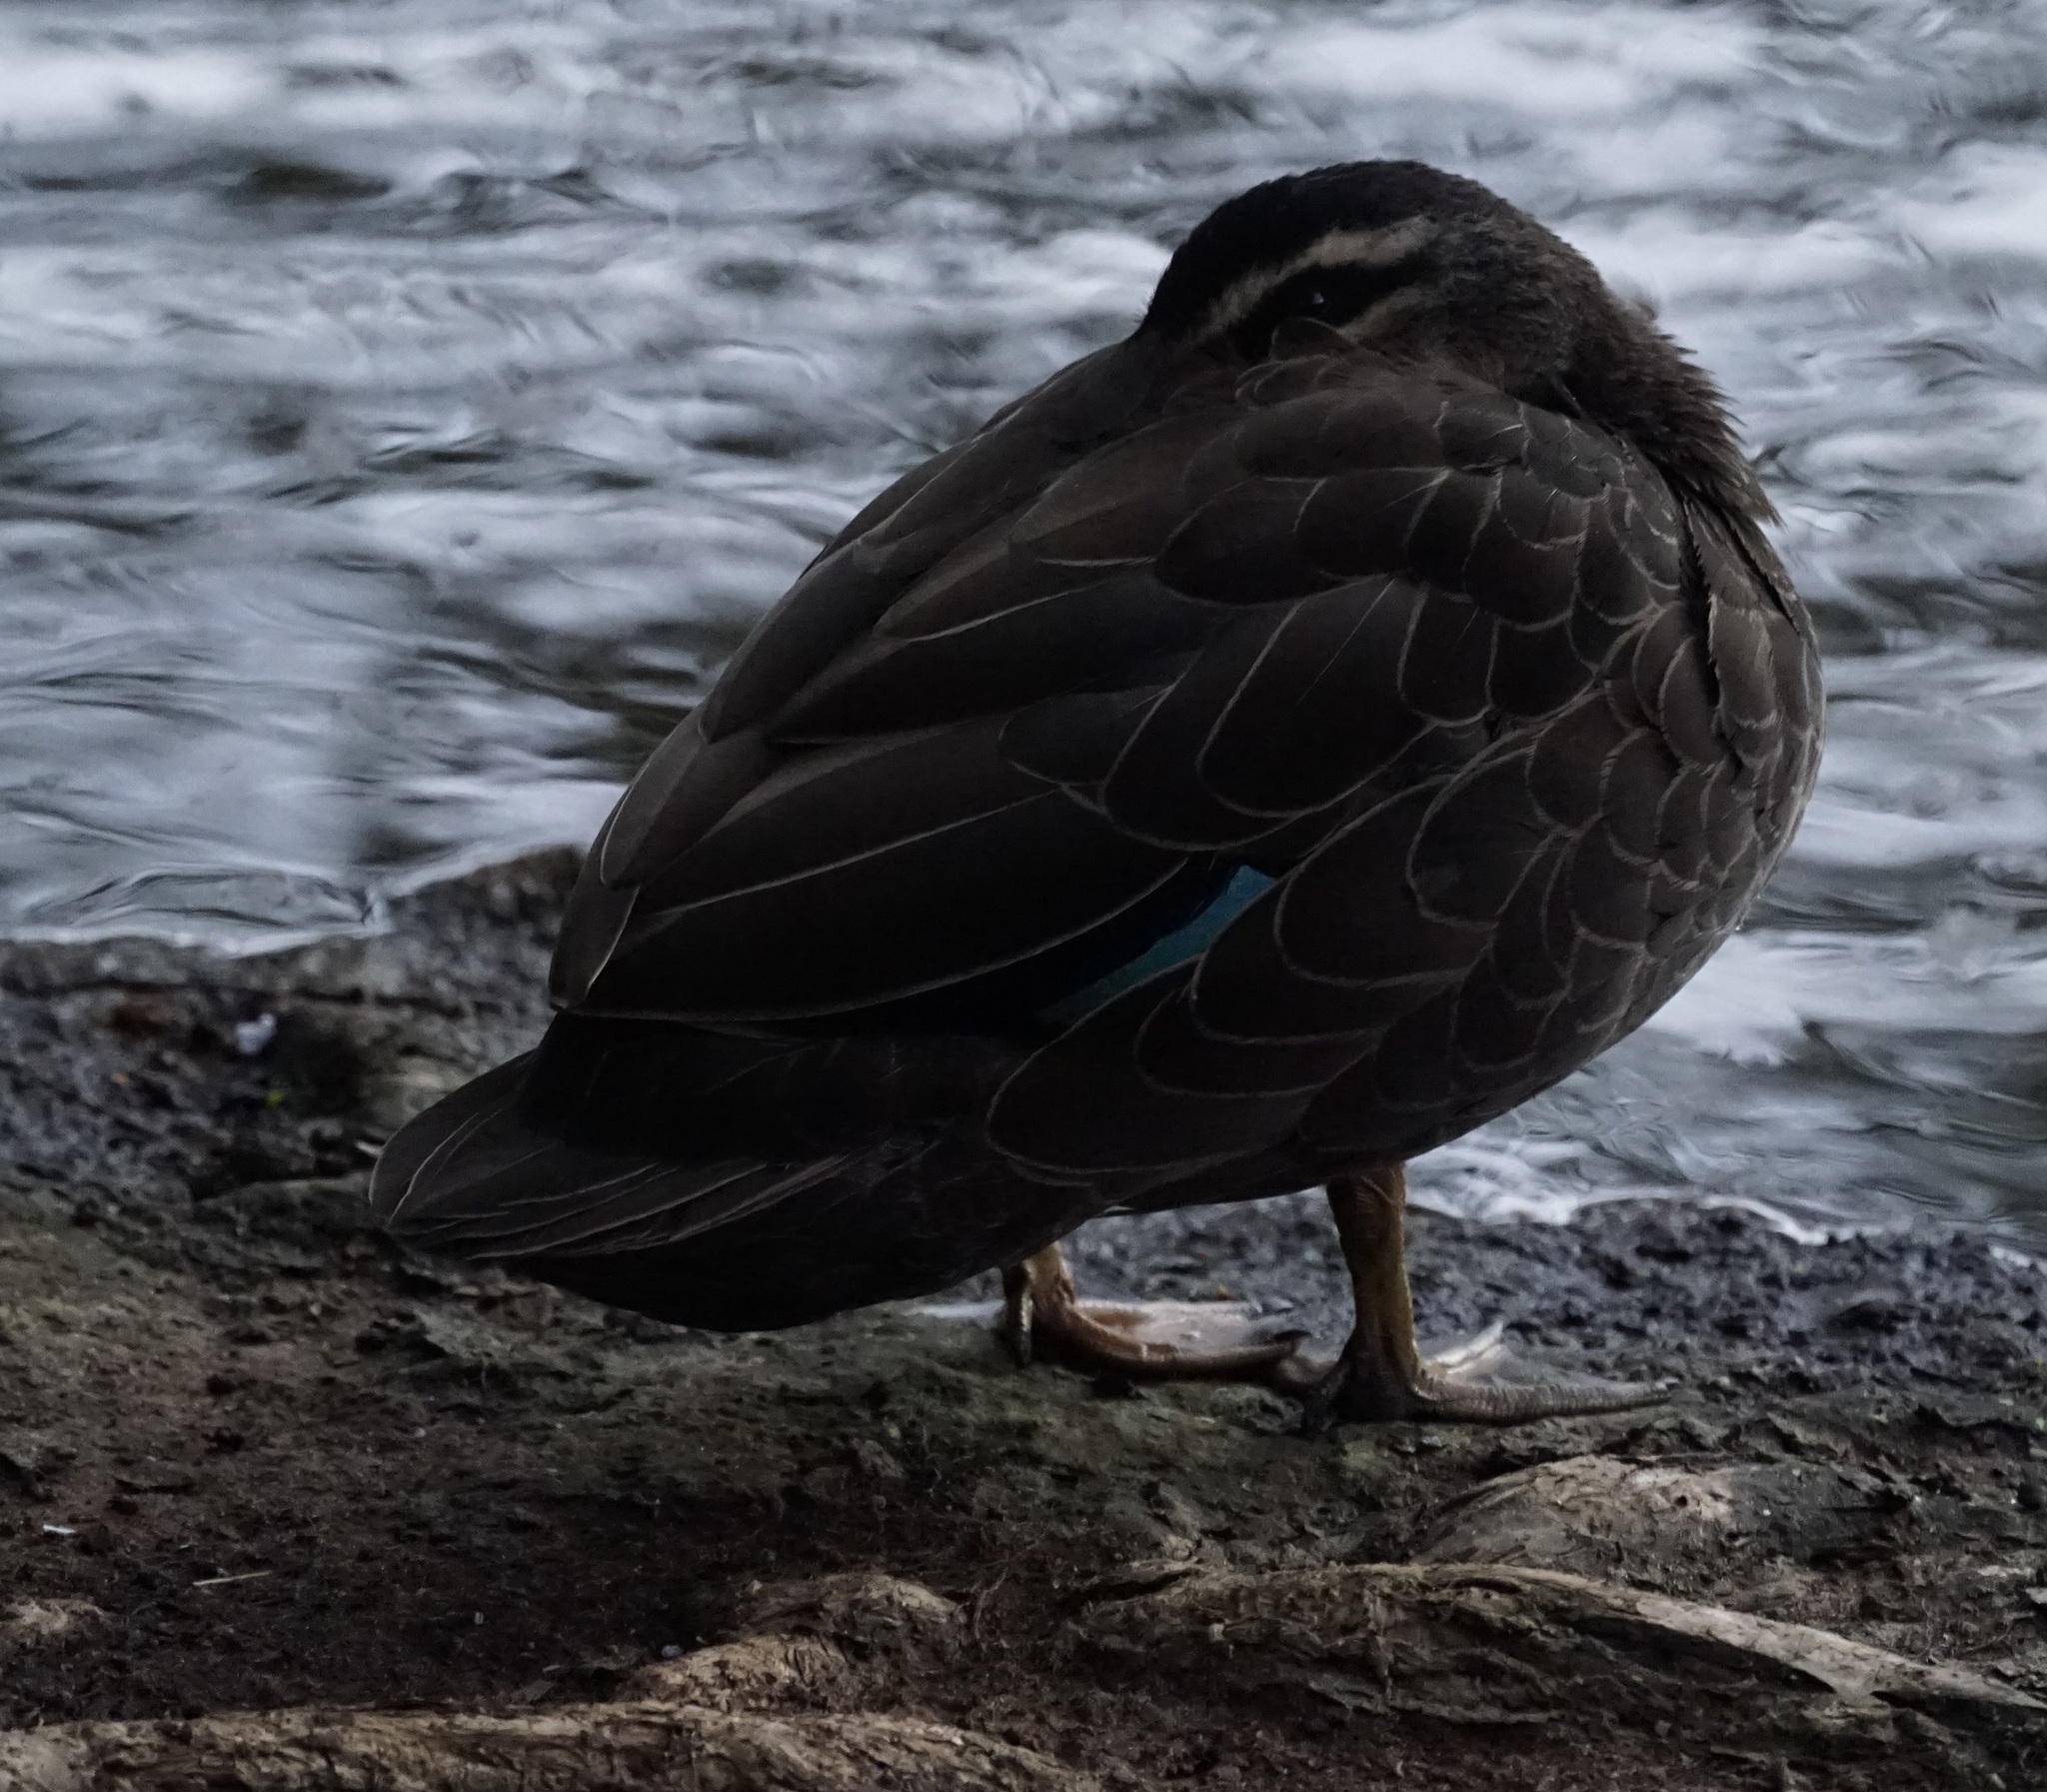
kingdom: Animalia
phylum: Chordata
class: Aves
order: Anseriformes
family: Anatidae
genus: Anas
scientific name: Anas superciliosa
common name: Pacific black duck
